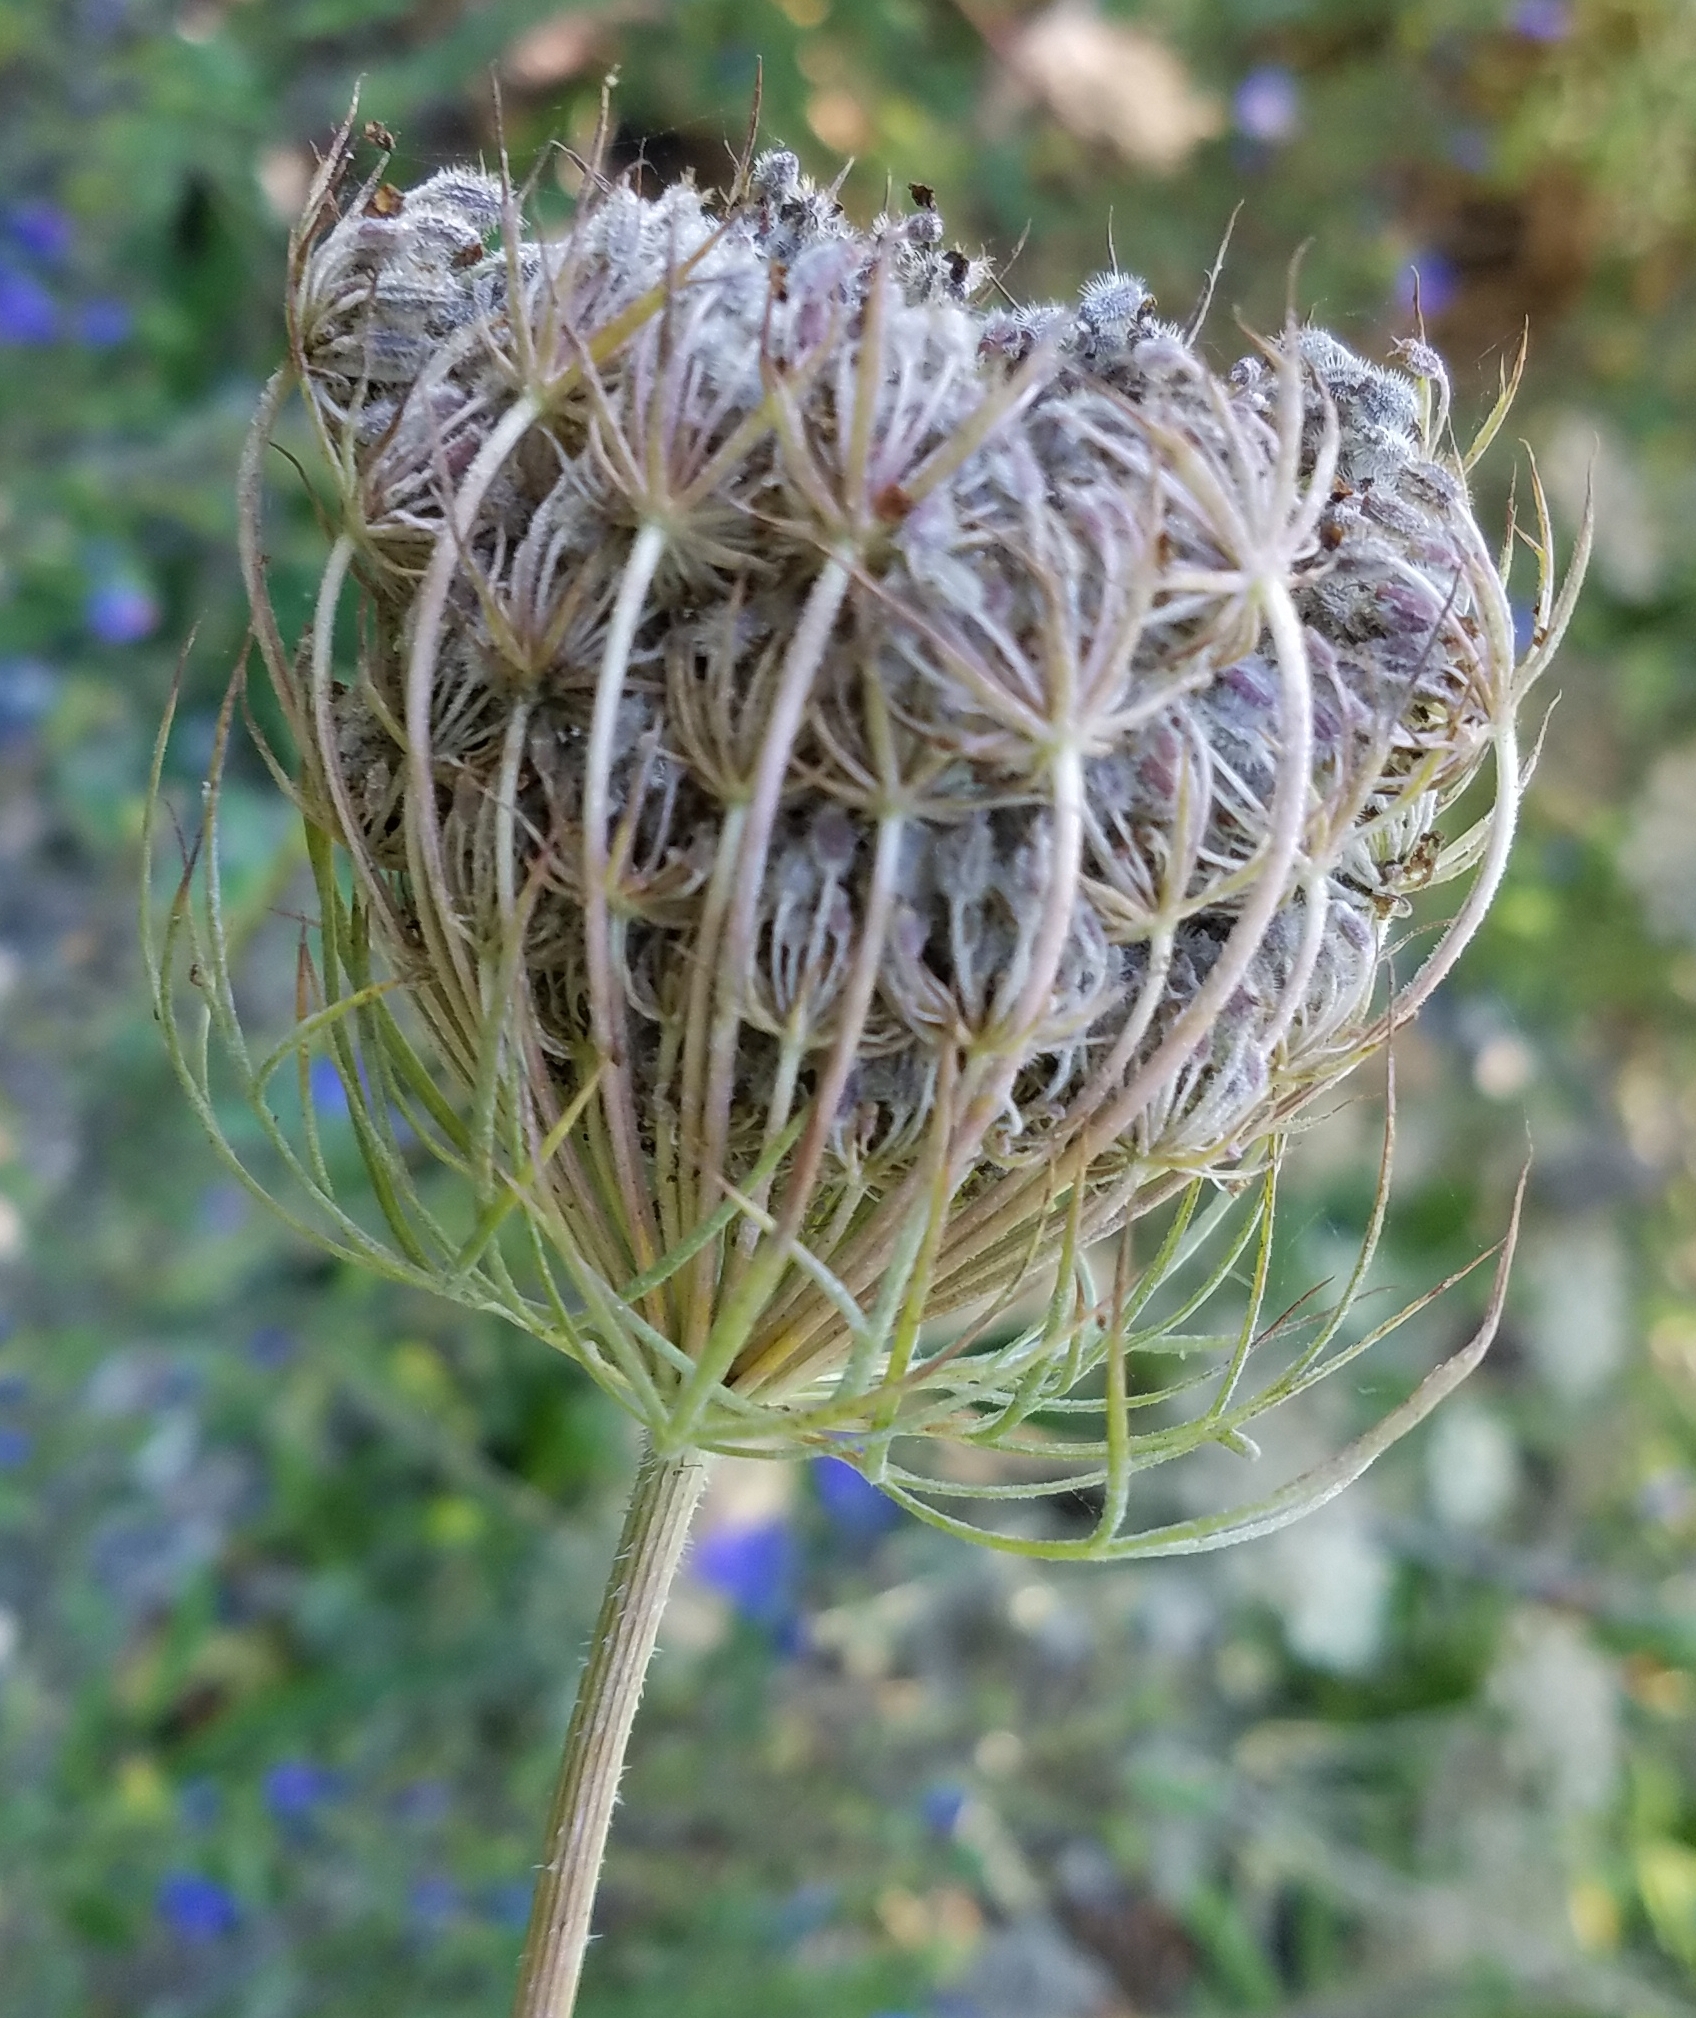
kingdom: Plantae
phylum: Tracheophyta
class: Magnoliopsida
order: Apiales
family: Apiaceae
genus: Daucus
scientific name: Daucus carota
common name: Wild carrot
